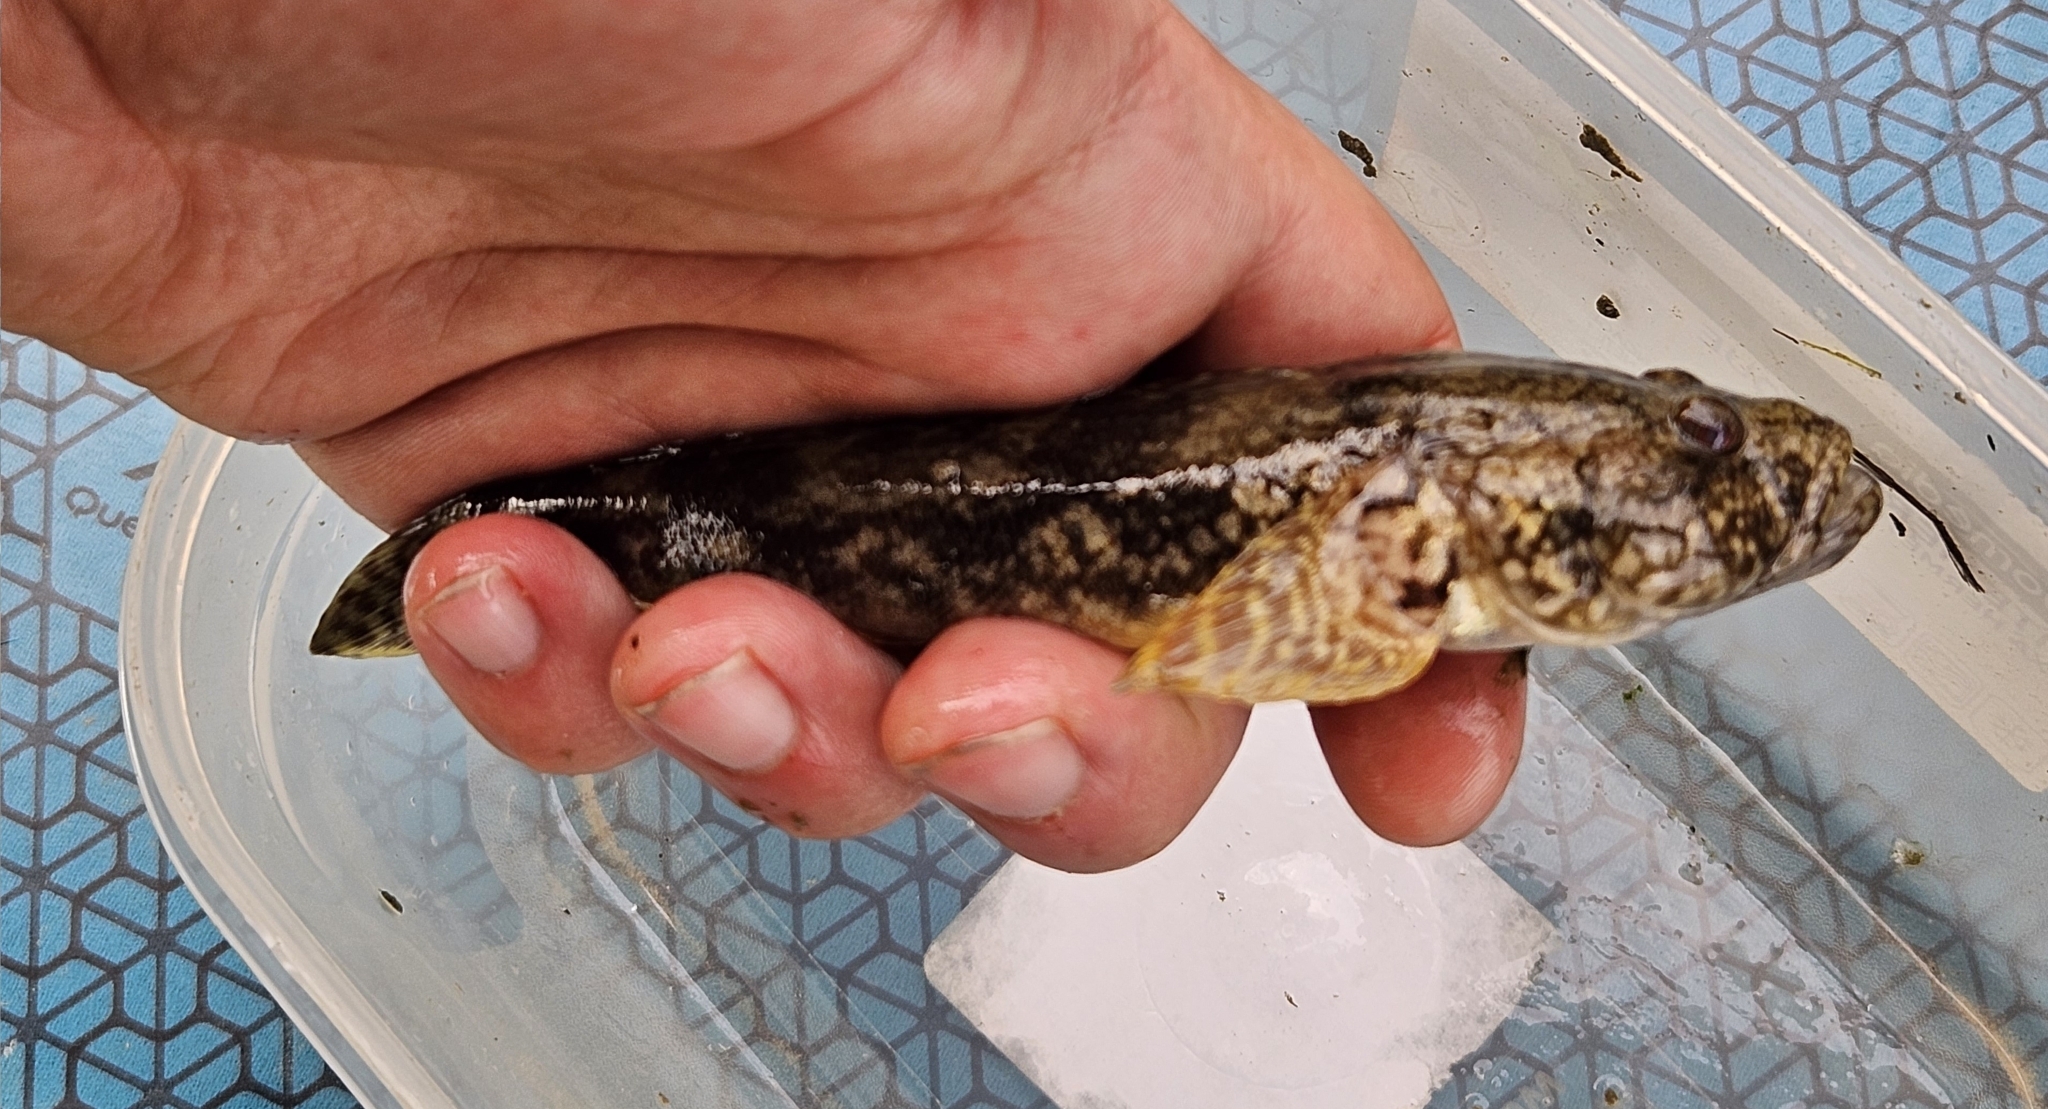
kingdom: Animalia
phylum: Chordata
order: Perciformes
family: Gobiidae
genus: Ponticola
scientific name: Ponticola kessleri
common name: Bighead goby
